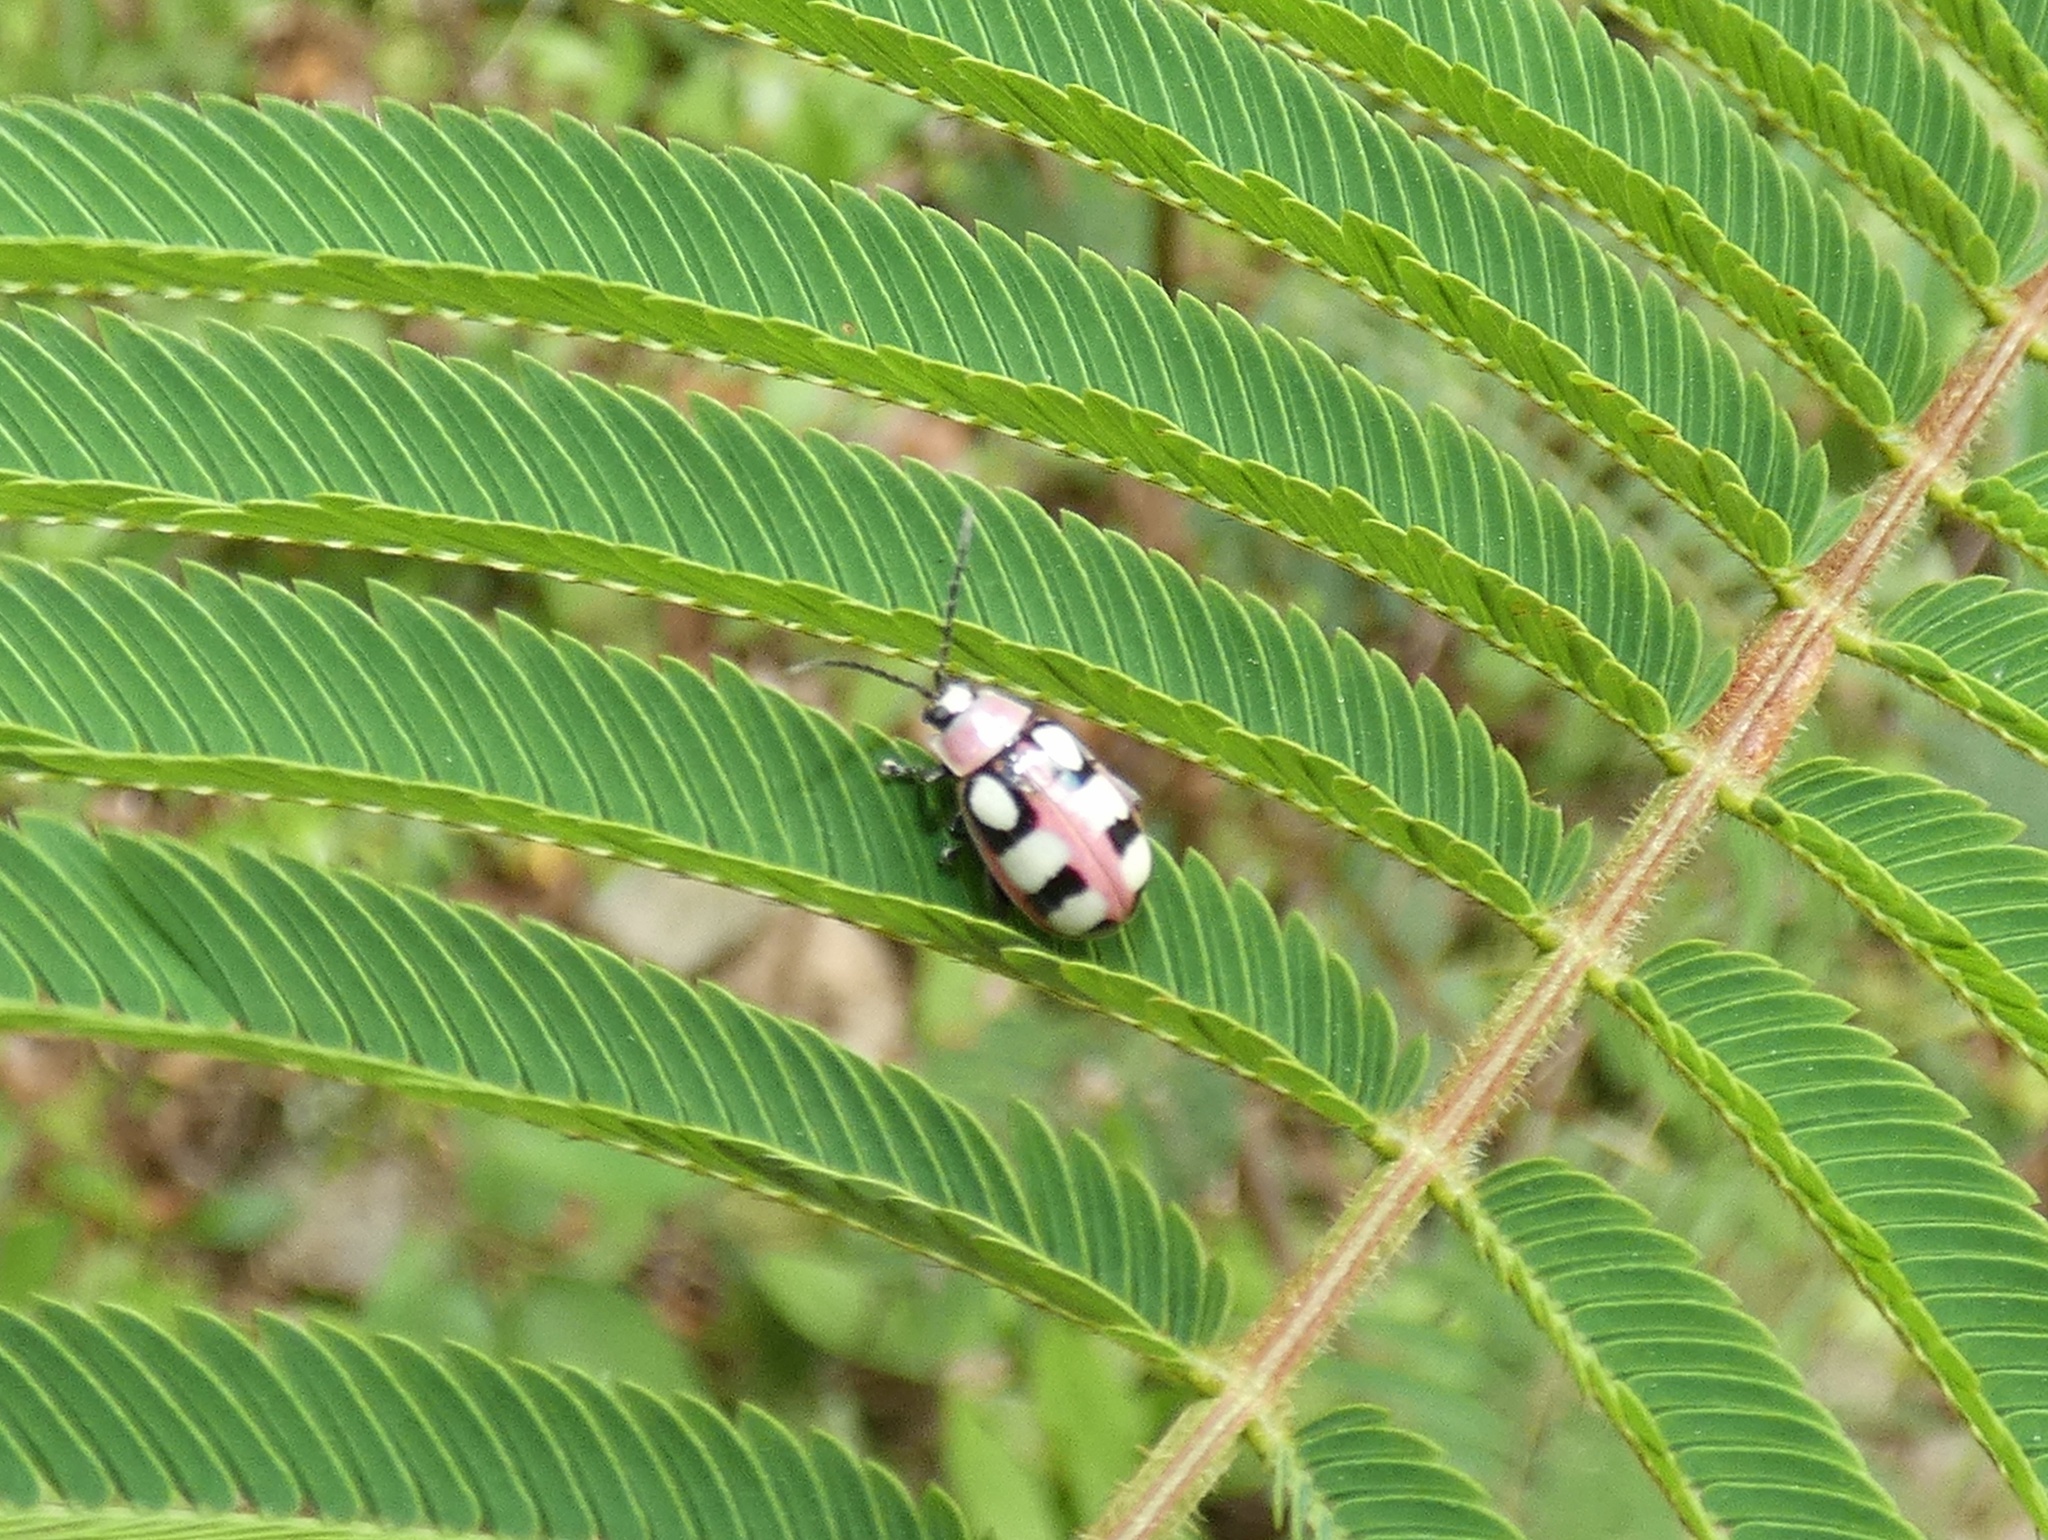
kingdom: Animalia
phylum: Arthropoda
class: Insecta
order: Coleoptera
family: Chrysomelidae
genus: Omophoita
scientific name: Omophoita
